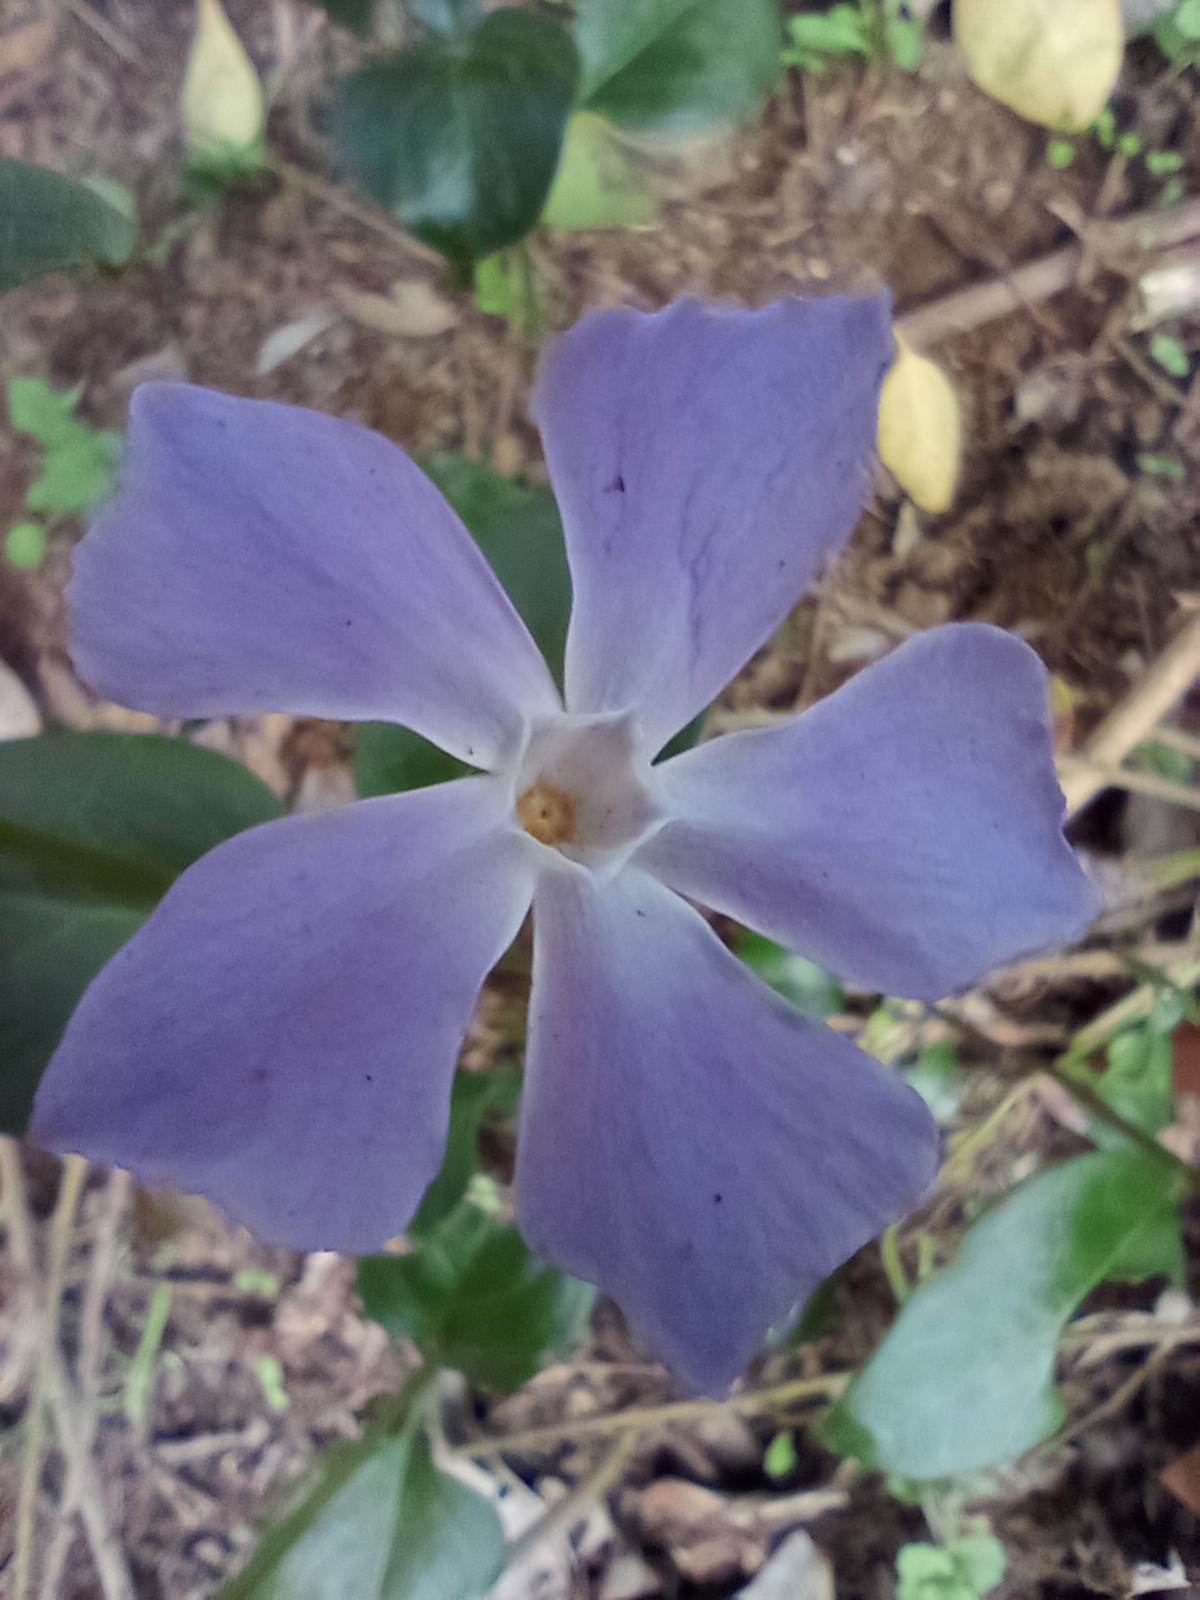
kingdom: Plantae
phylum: Tracheophyta
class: Magnoliopsida
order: Gentianales
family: Apocynaceae
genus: Vinca
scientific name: Vinca major
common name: Greater periwinkle
